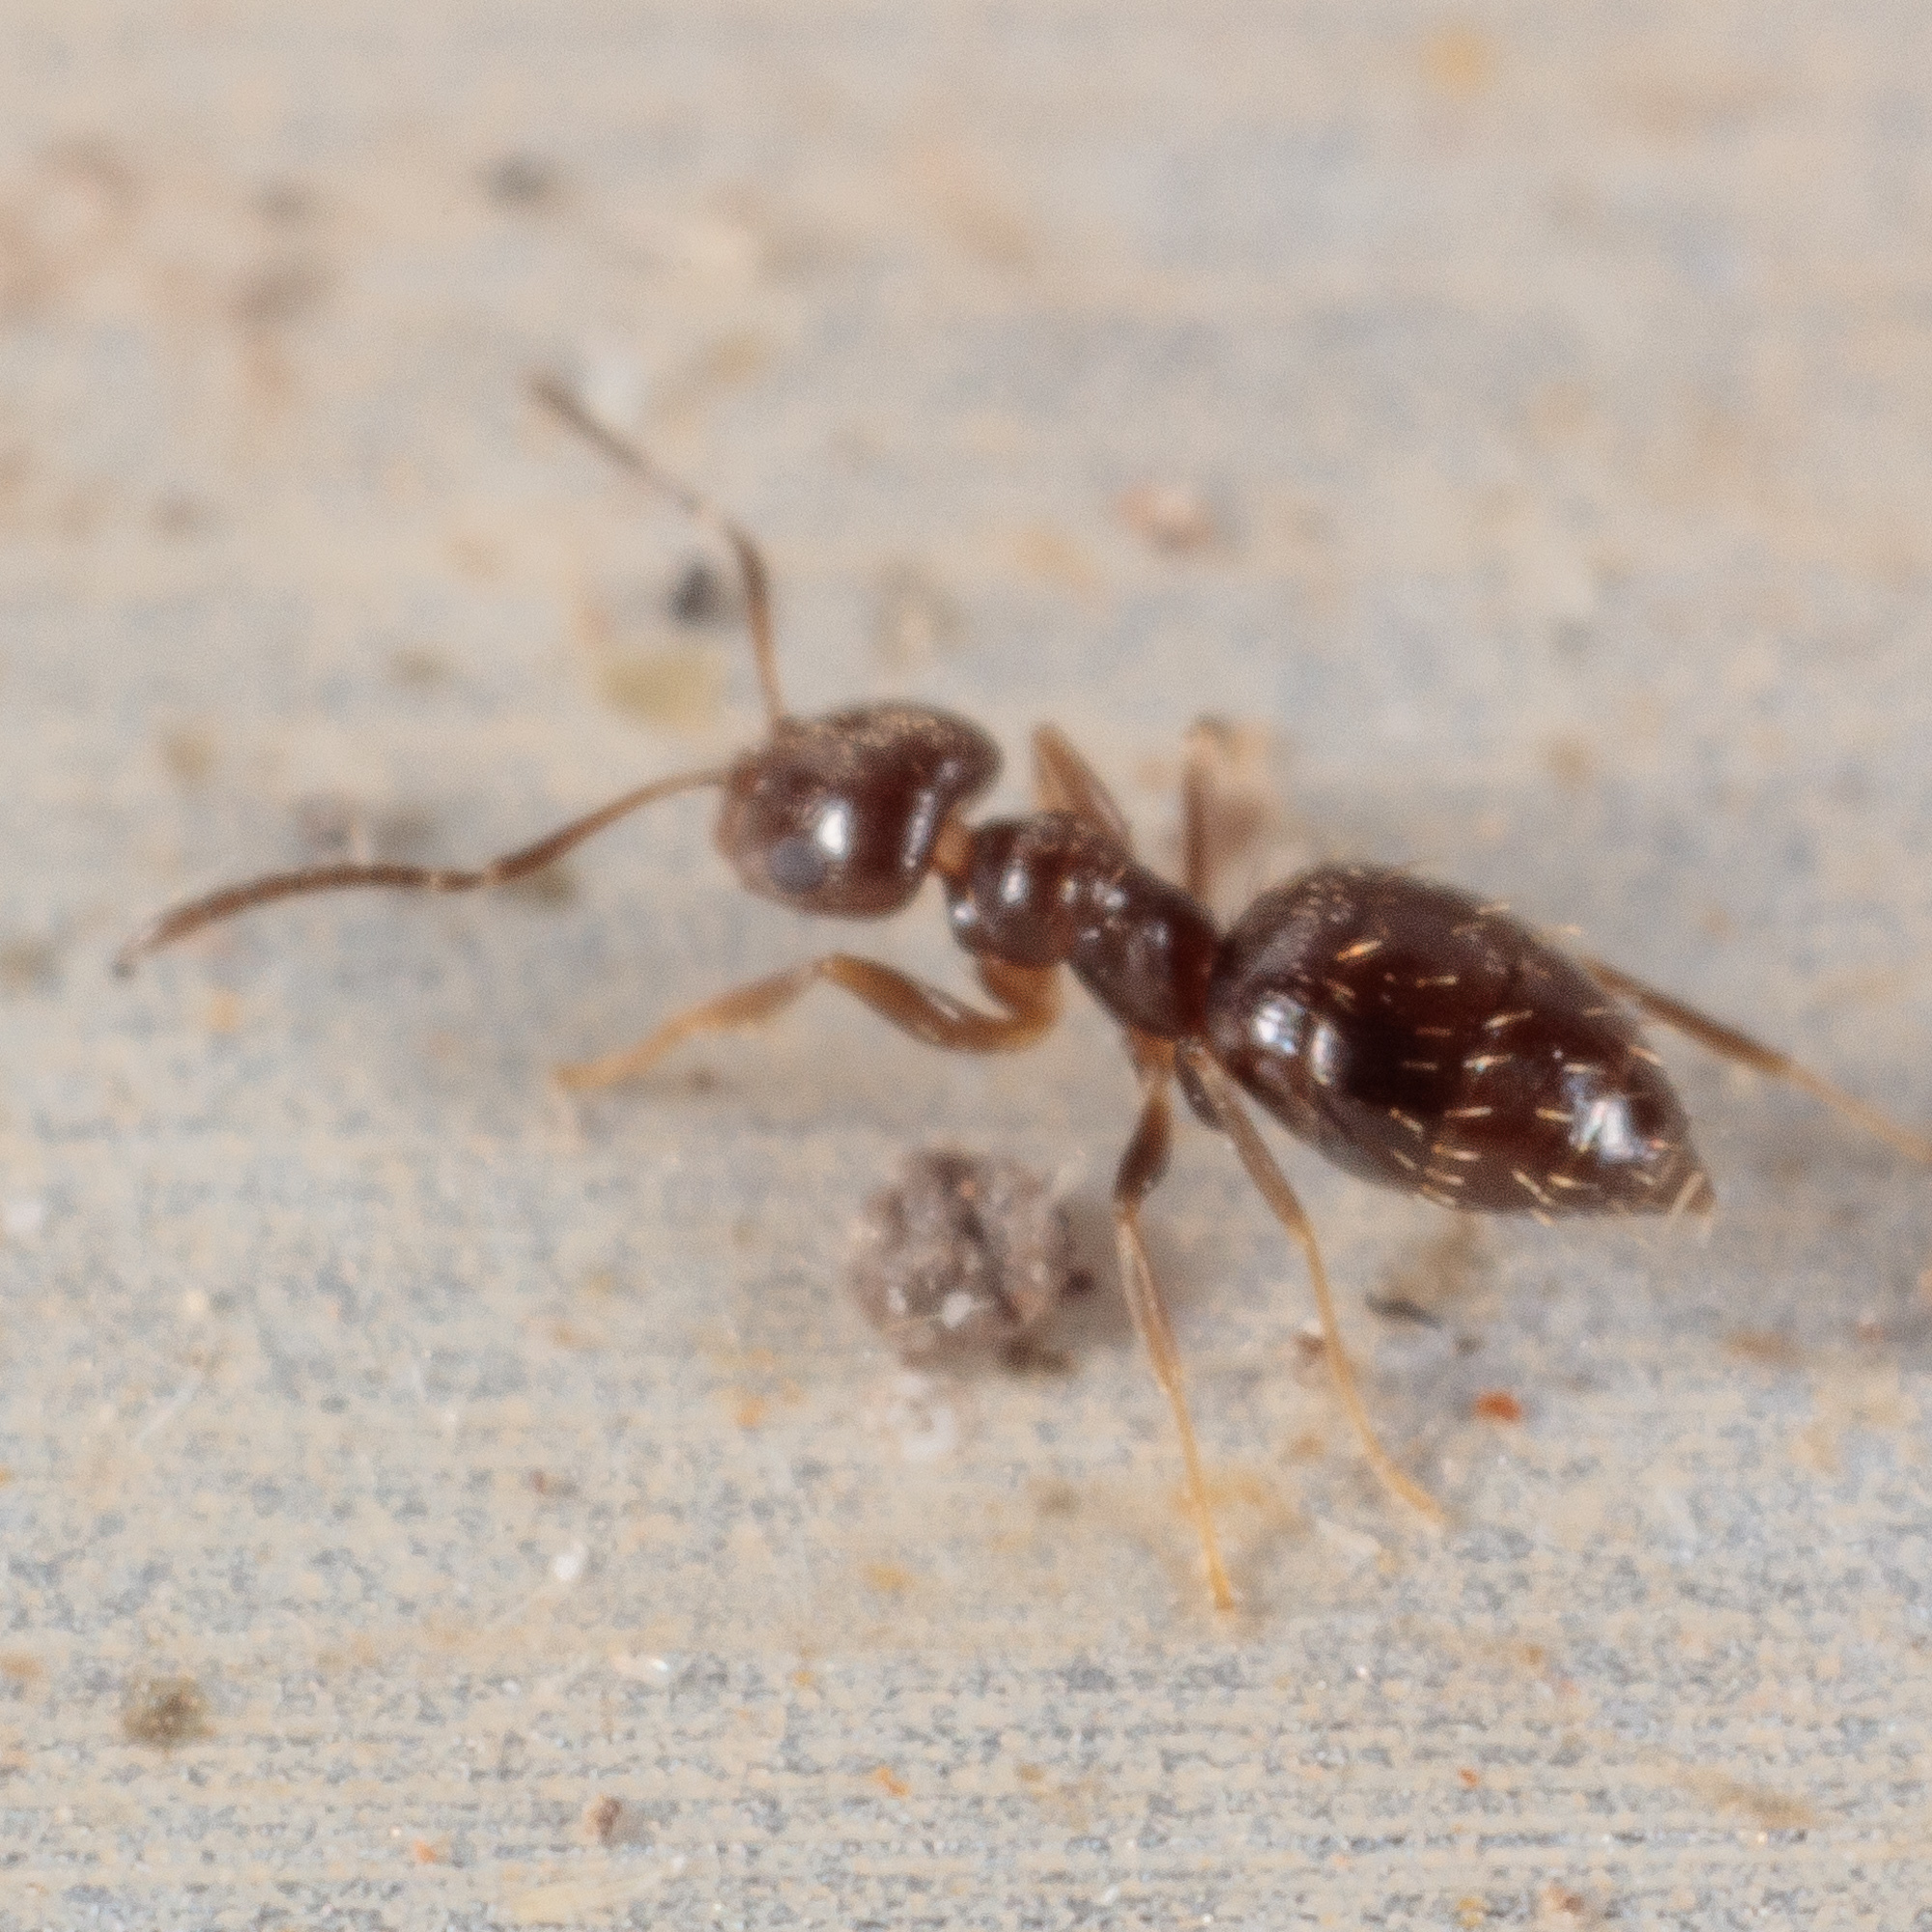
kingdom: Animalia
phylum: Arthropoda
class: Insecta
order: Hymenoptera
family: Formicidae
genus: Brachymyrmex
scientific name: Brachymyrmex patagonicus
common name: Dark rover ant
